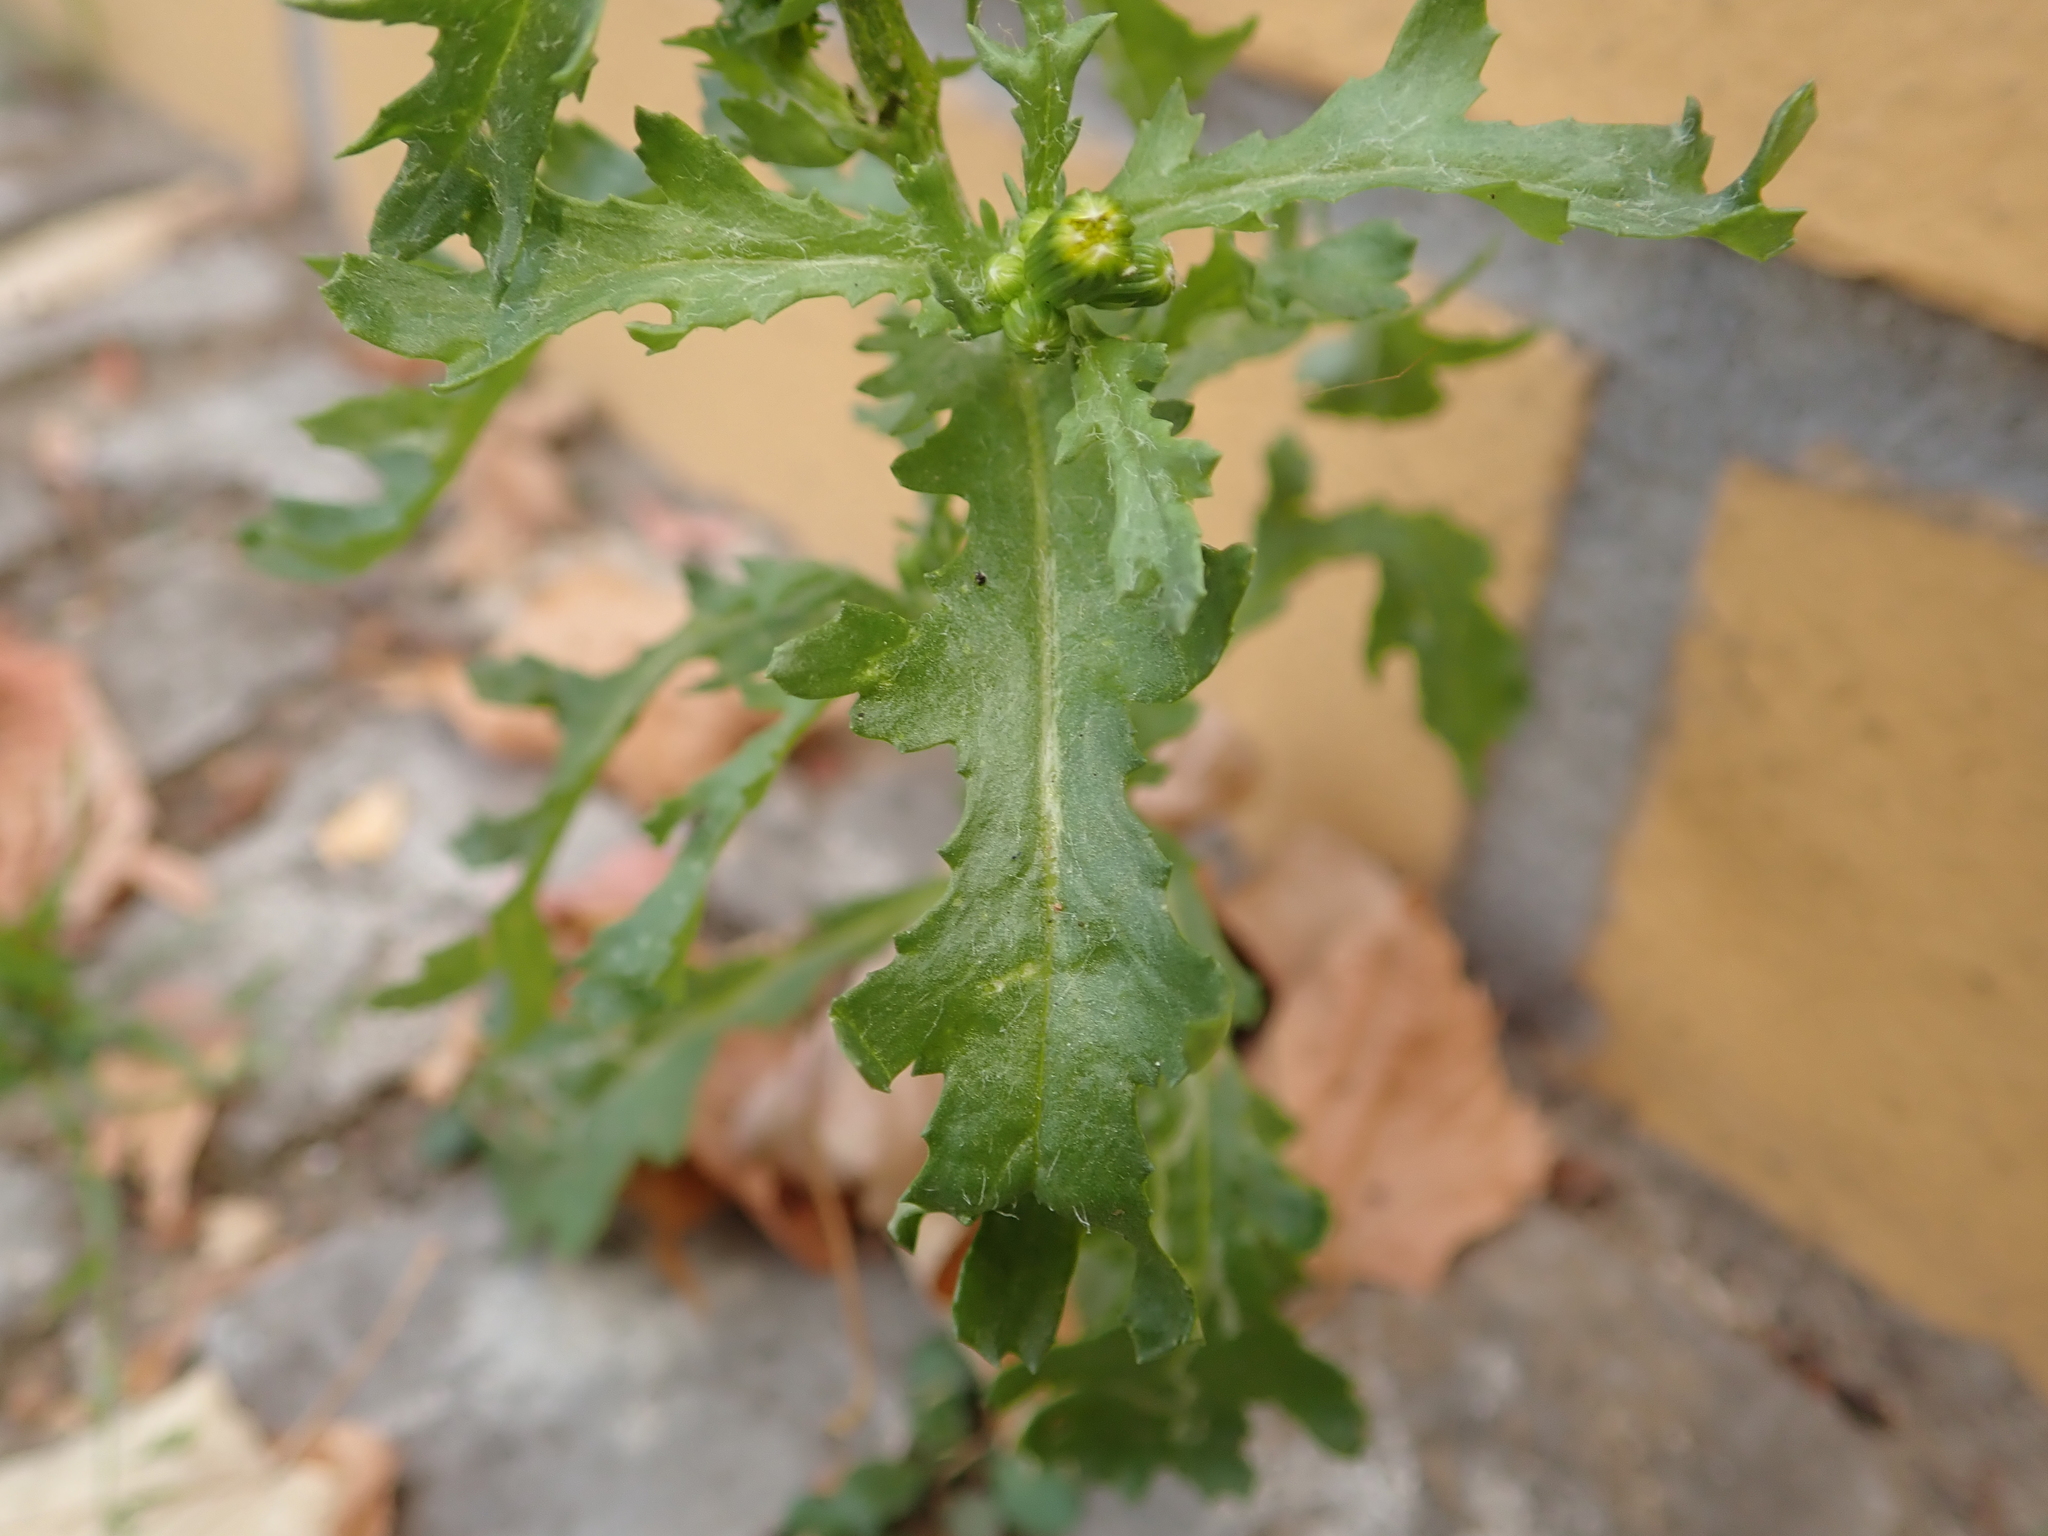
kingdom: Plantae
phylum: Tracheophyta
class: Magnoliopsida
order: Asterales
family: Asteraceae
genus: Senecio
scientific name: Senecio vulgaris
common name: Old-man-in-the-spring
